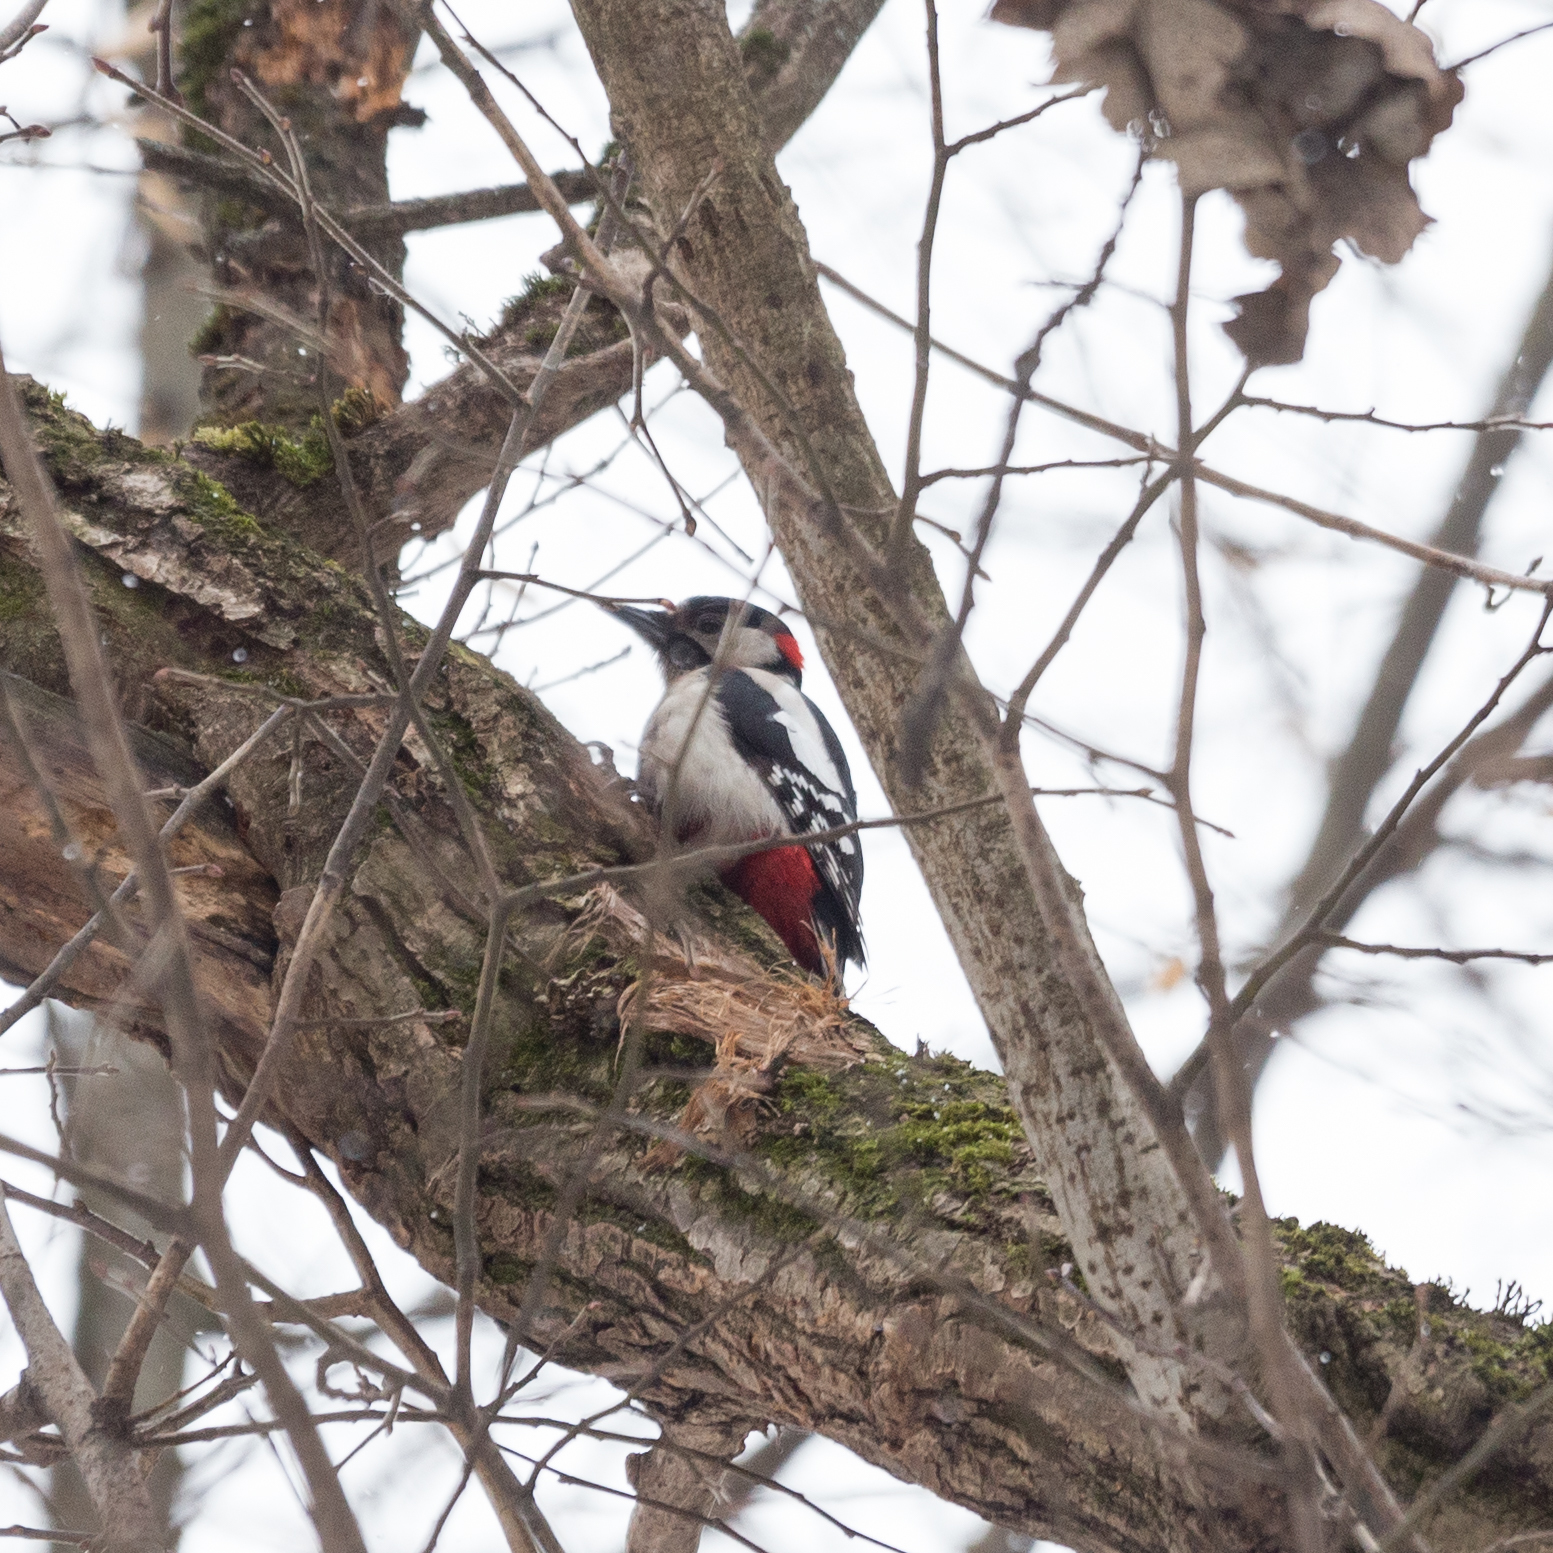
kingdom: Animalia
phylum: Chordata
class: Aves
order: Piciformes
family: Picidae
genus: Dendrocopos
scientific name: Dendrocopos major
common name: Great spotted woodpecker
